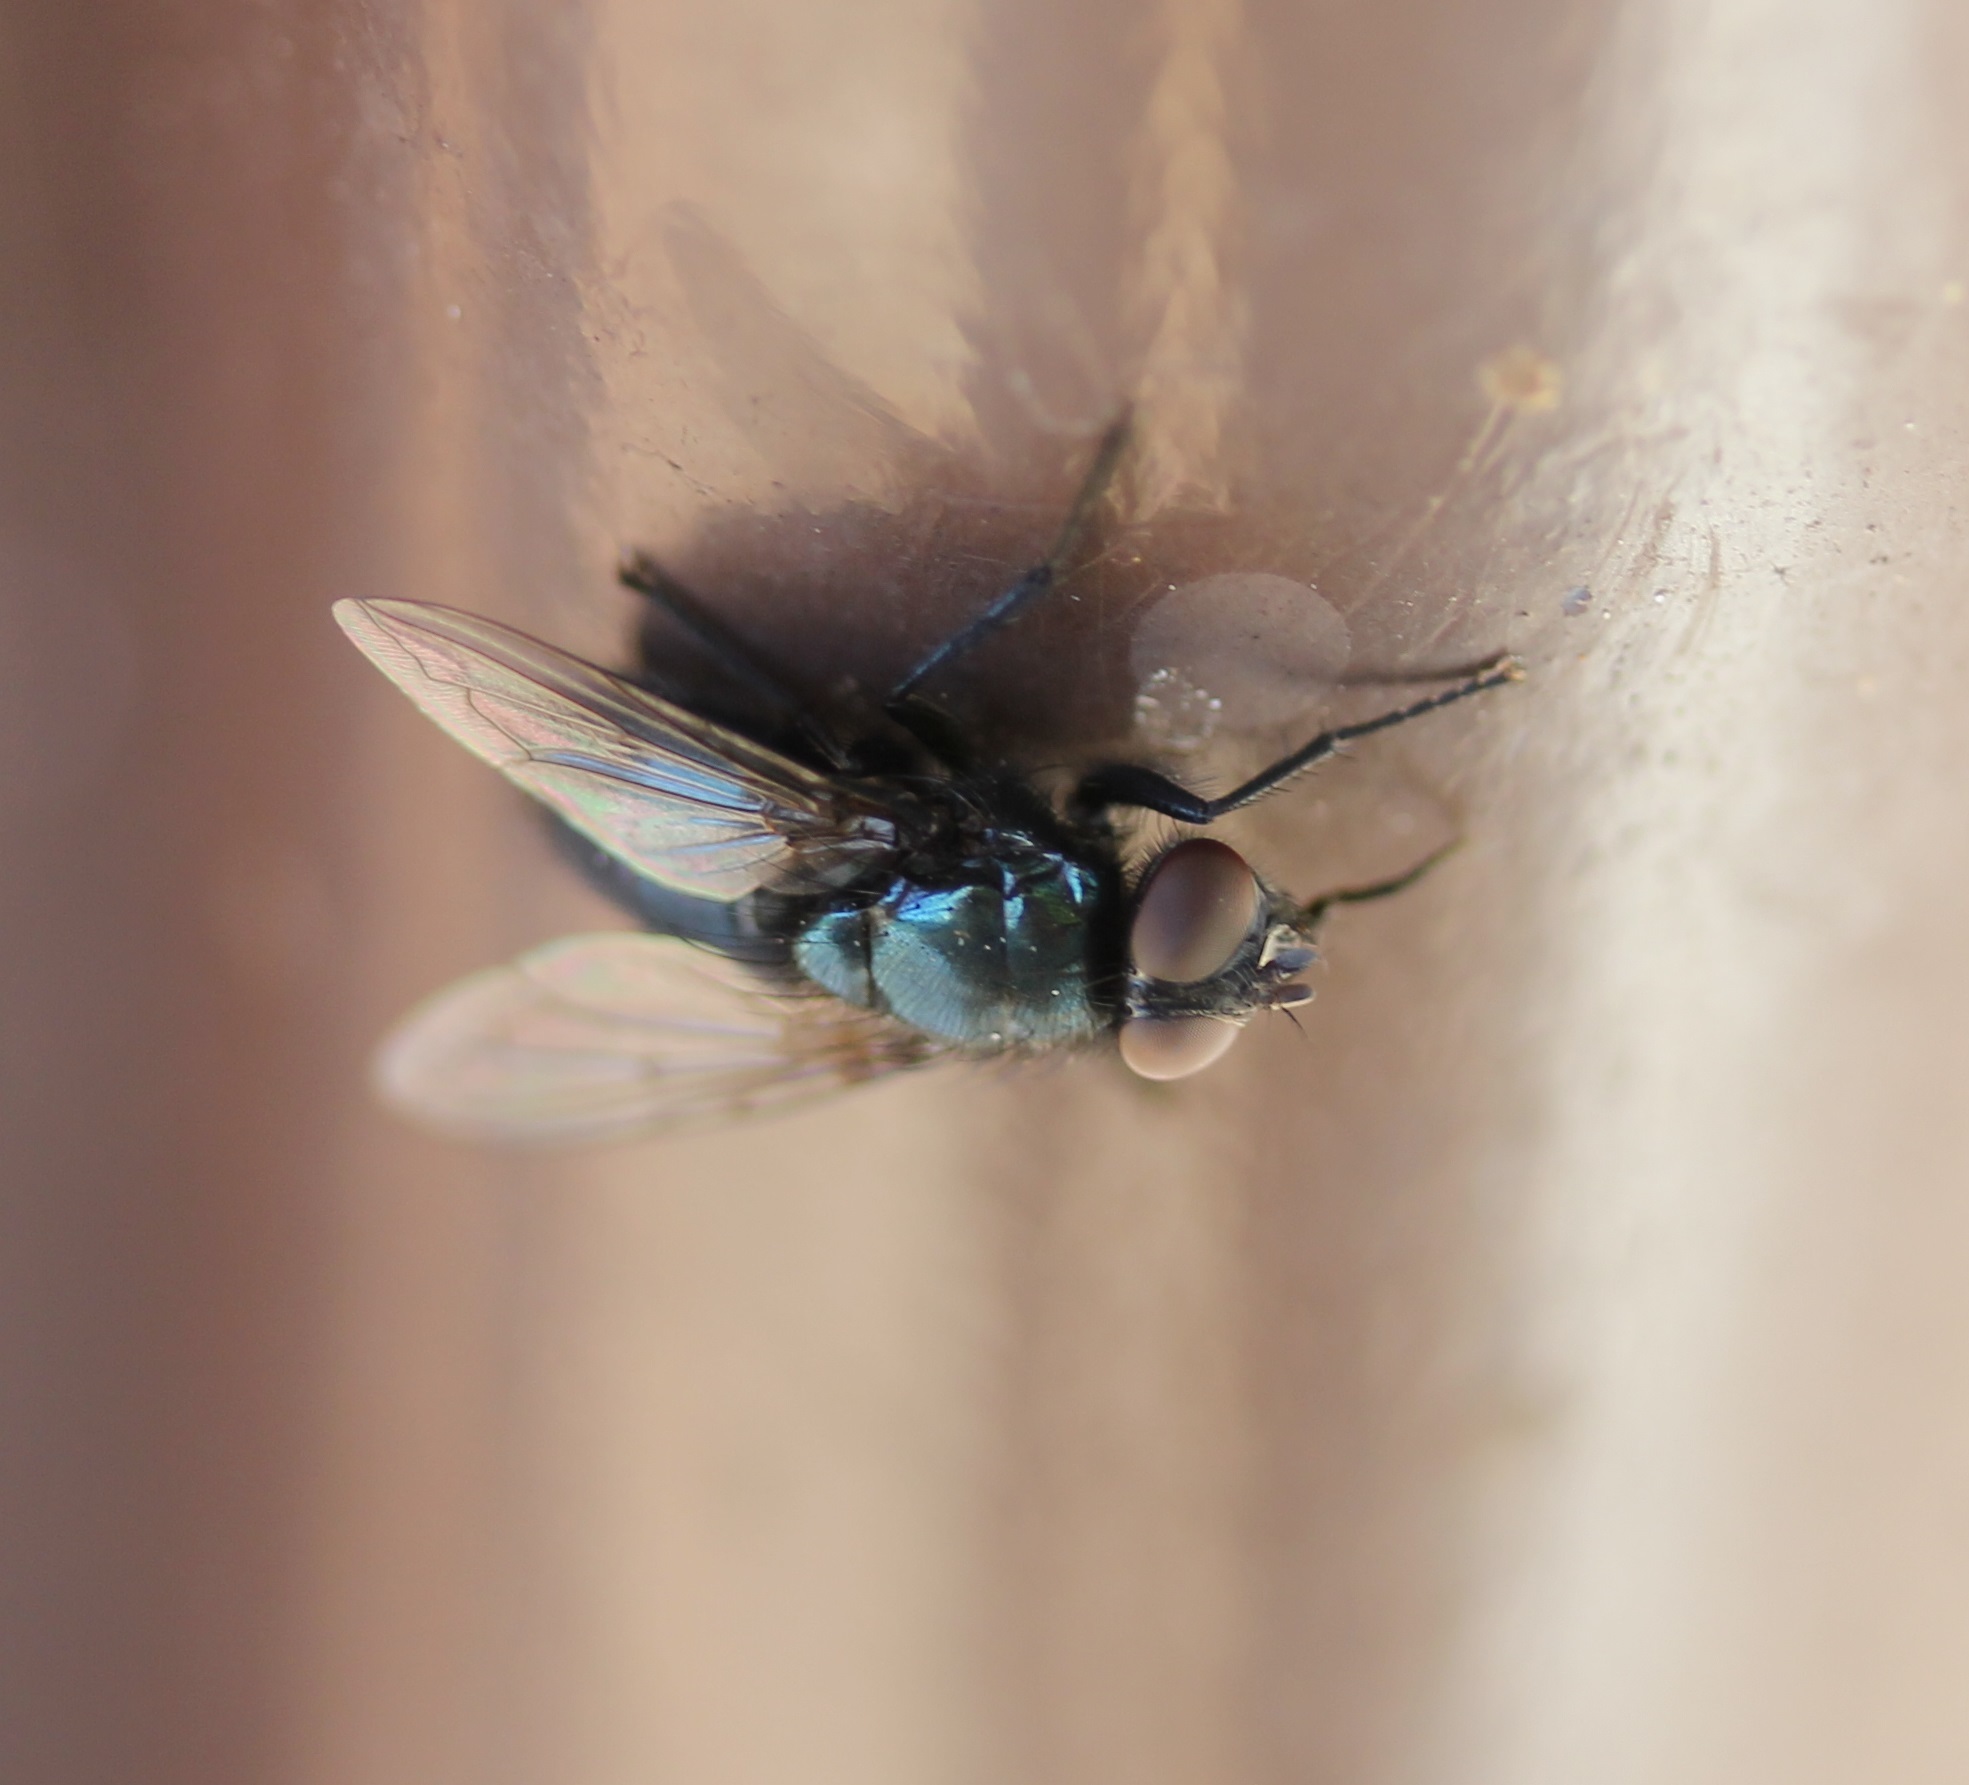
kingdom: Animalia
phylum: Arthropoda
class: Insecta
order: Diptera
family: Calliphoridae
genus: Protophormia
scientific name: Protophormia terraenovae
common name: Blackbottle
